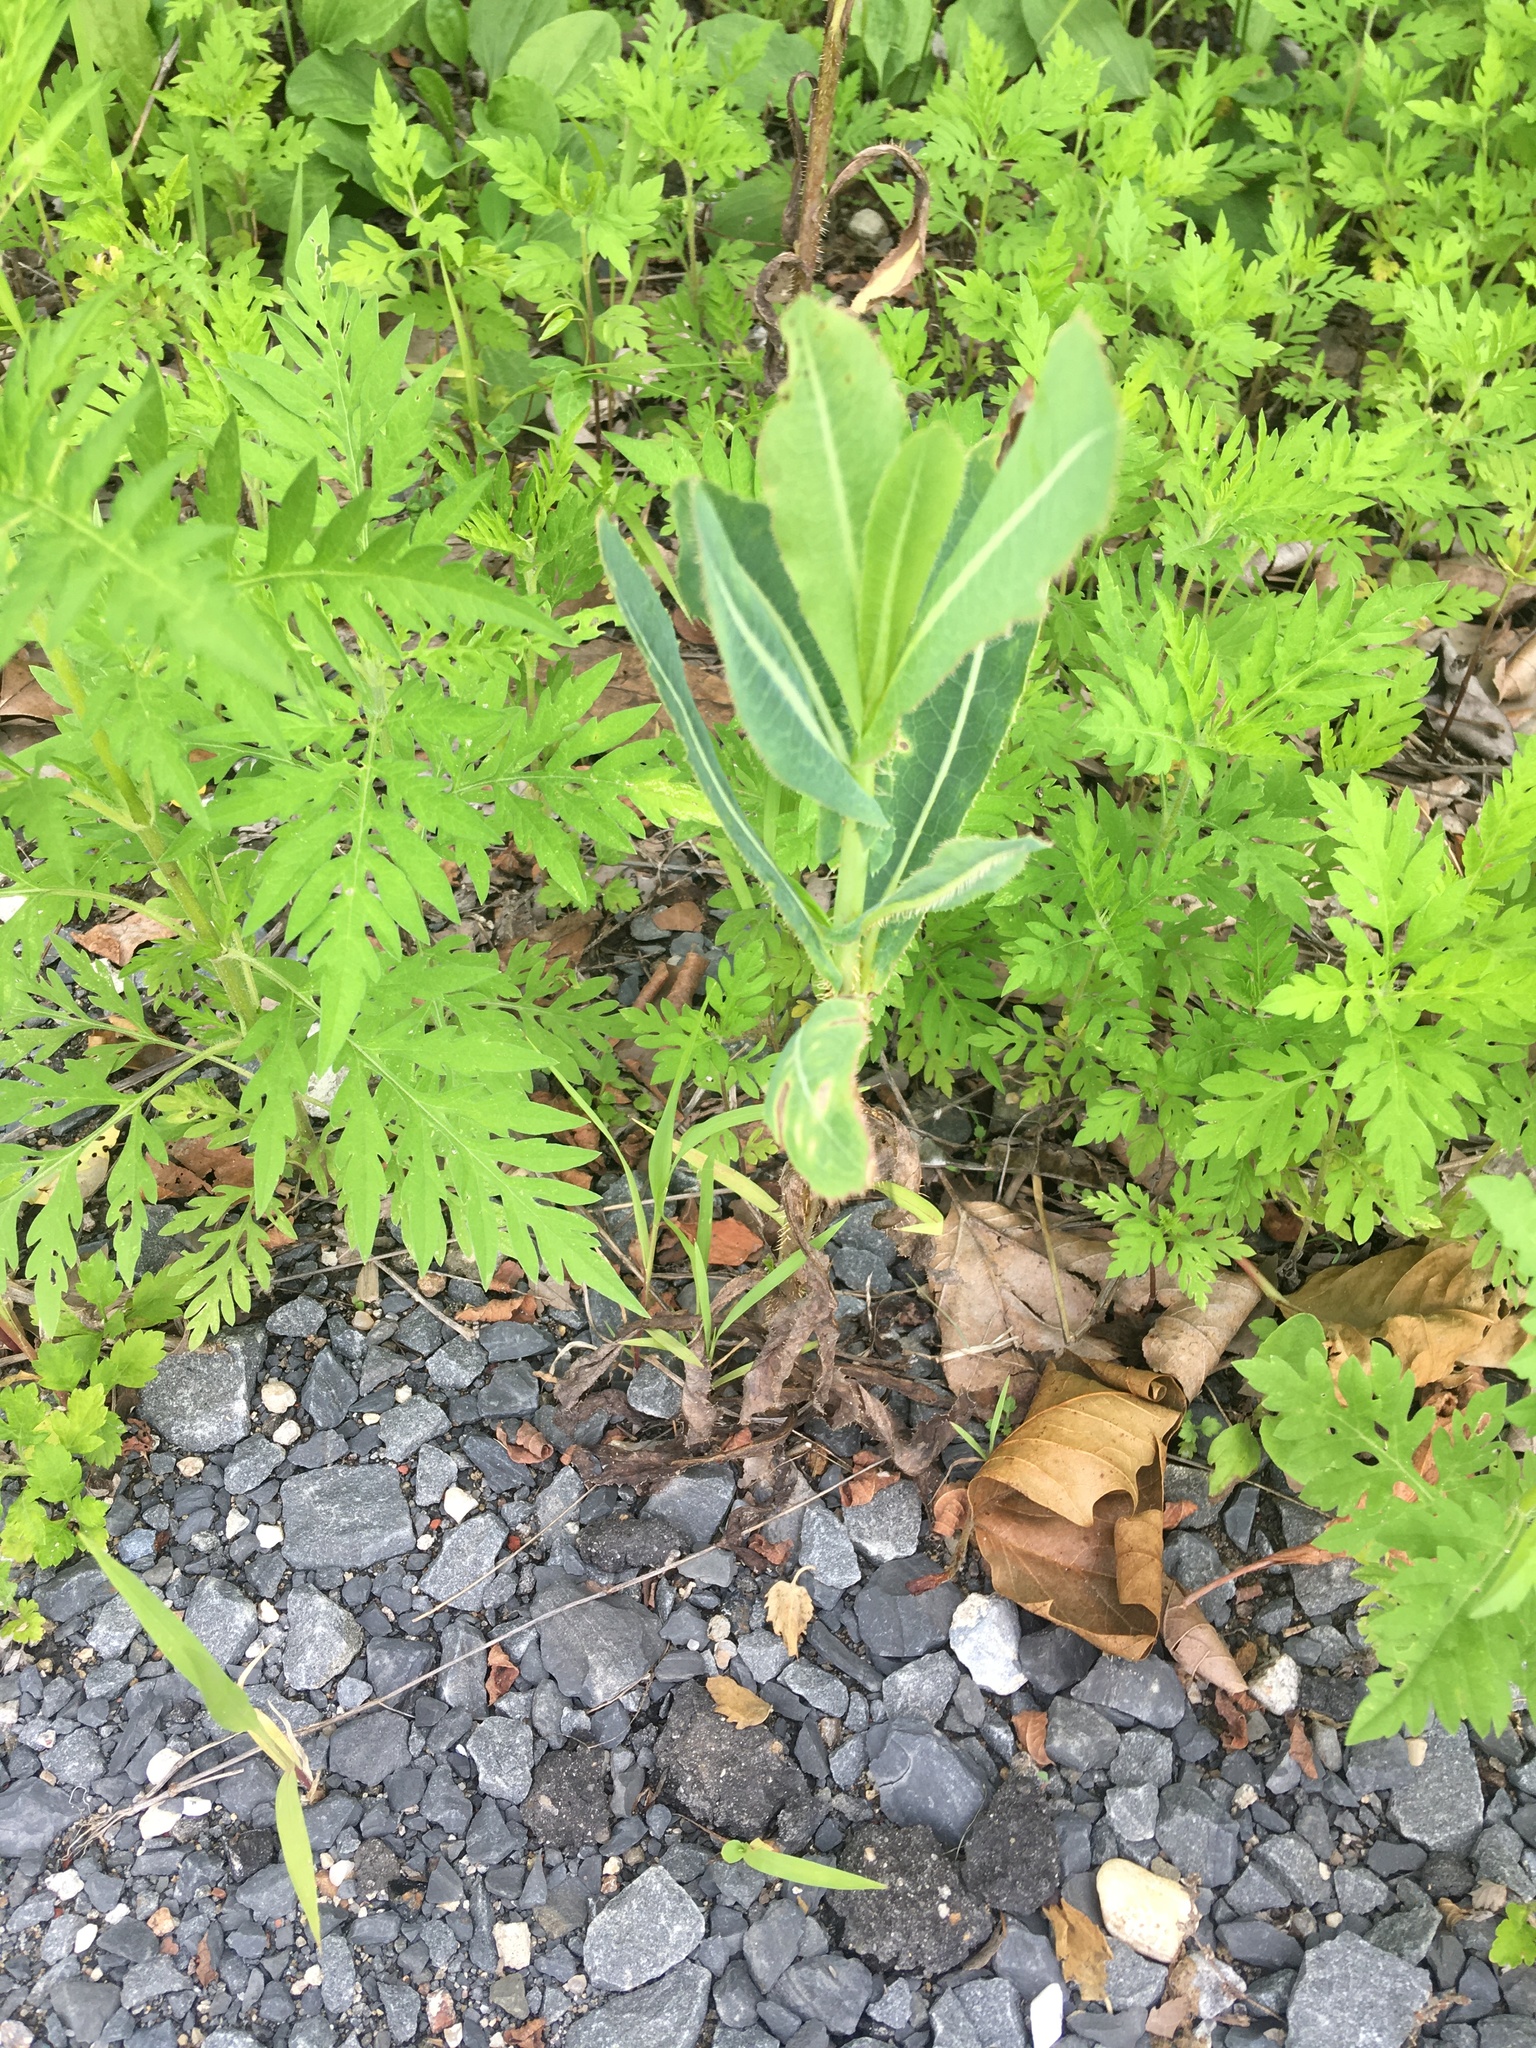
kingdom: Plantae
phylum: Tracheophyta
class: Magnoliopsida
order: Asterales
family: Asteraceae
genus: Lactuca
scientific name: Lactuca serriola
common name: Prickly lettuce
